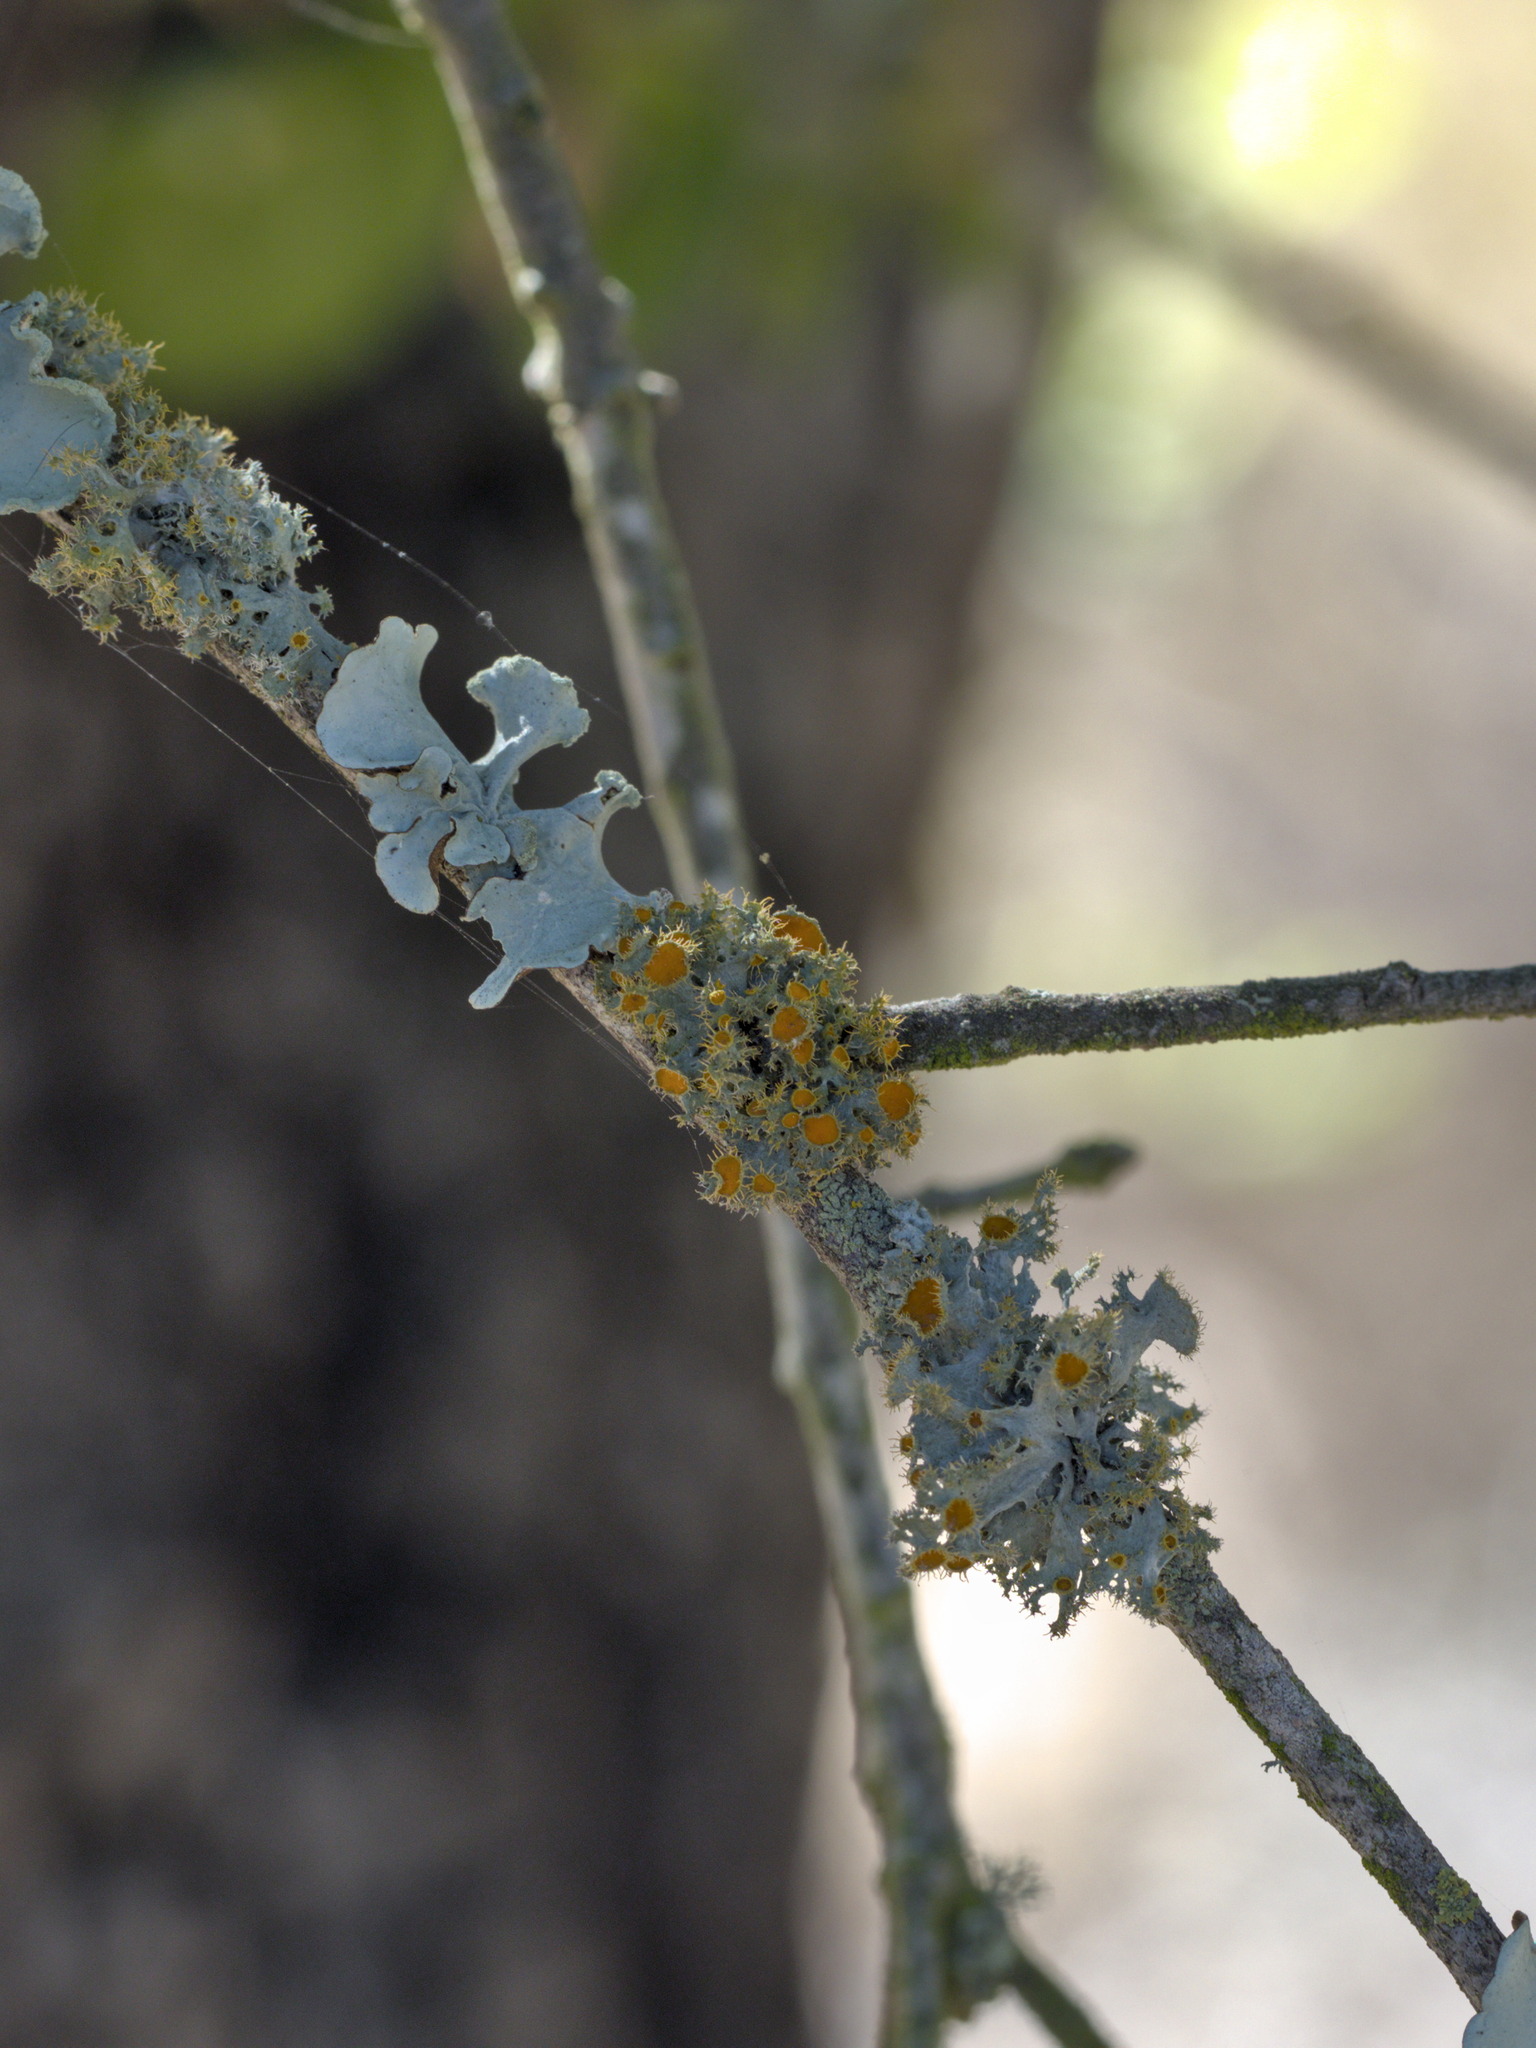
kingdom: Fungi
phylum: Ascomycota
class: Lecanoromycetes
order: Teloschistales
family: Teloschistaceae
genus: Niorma
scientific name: Niorma chrysophthalma
